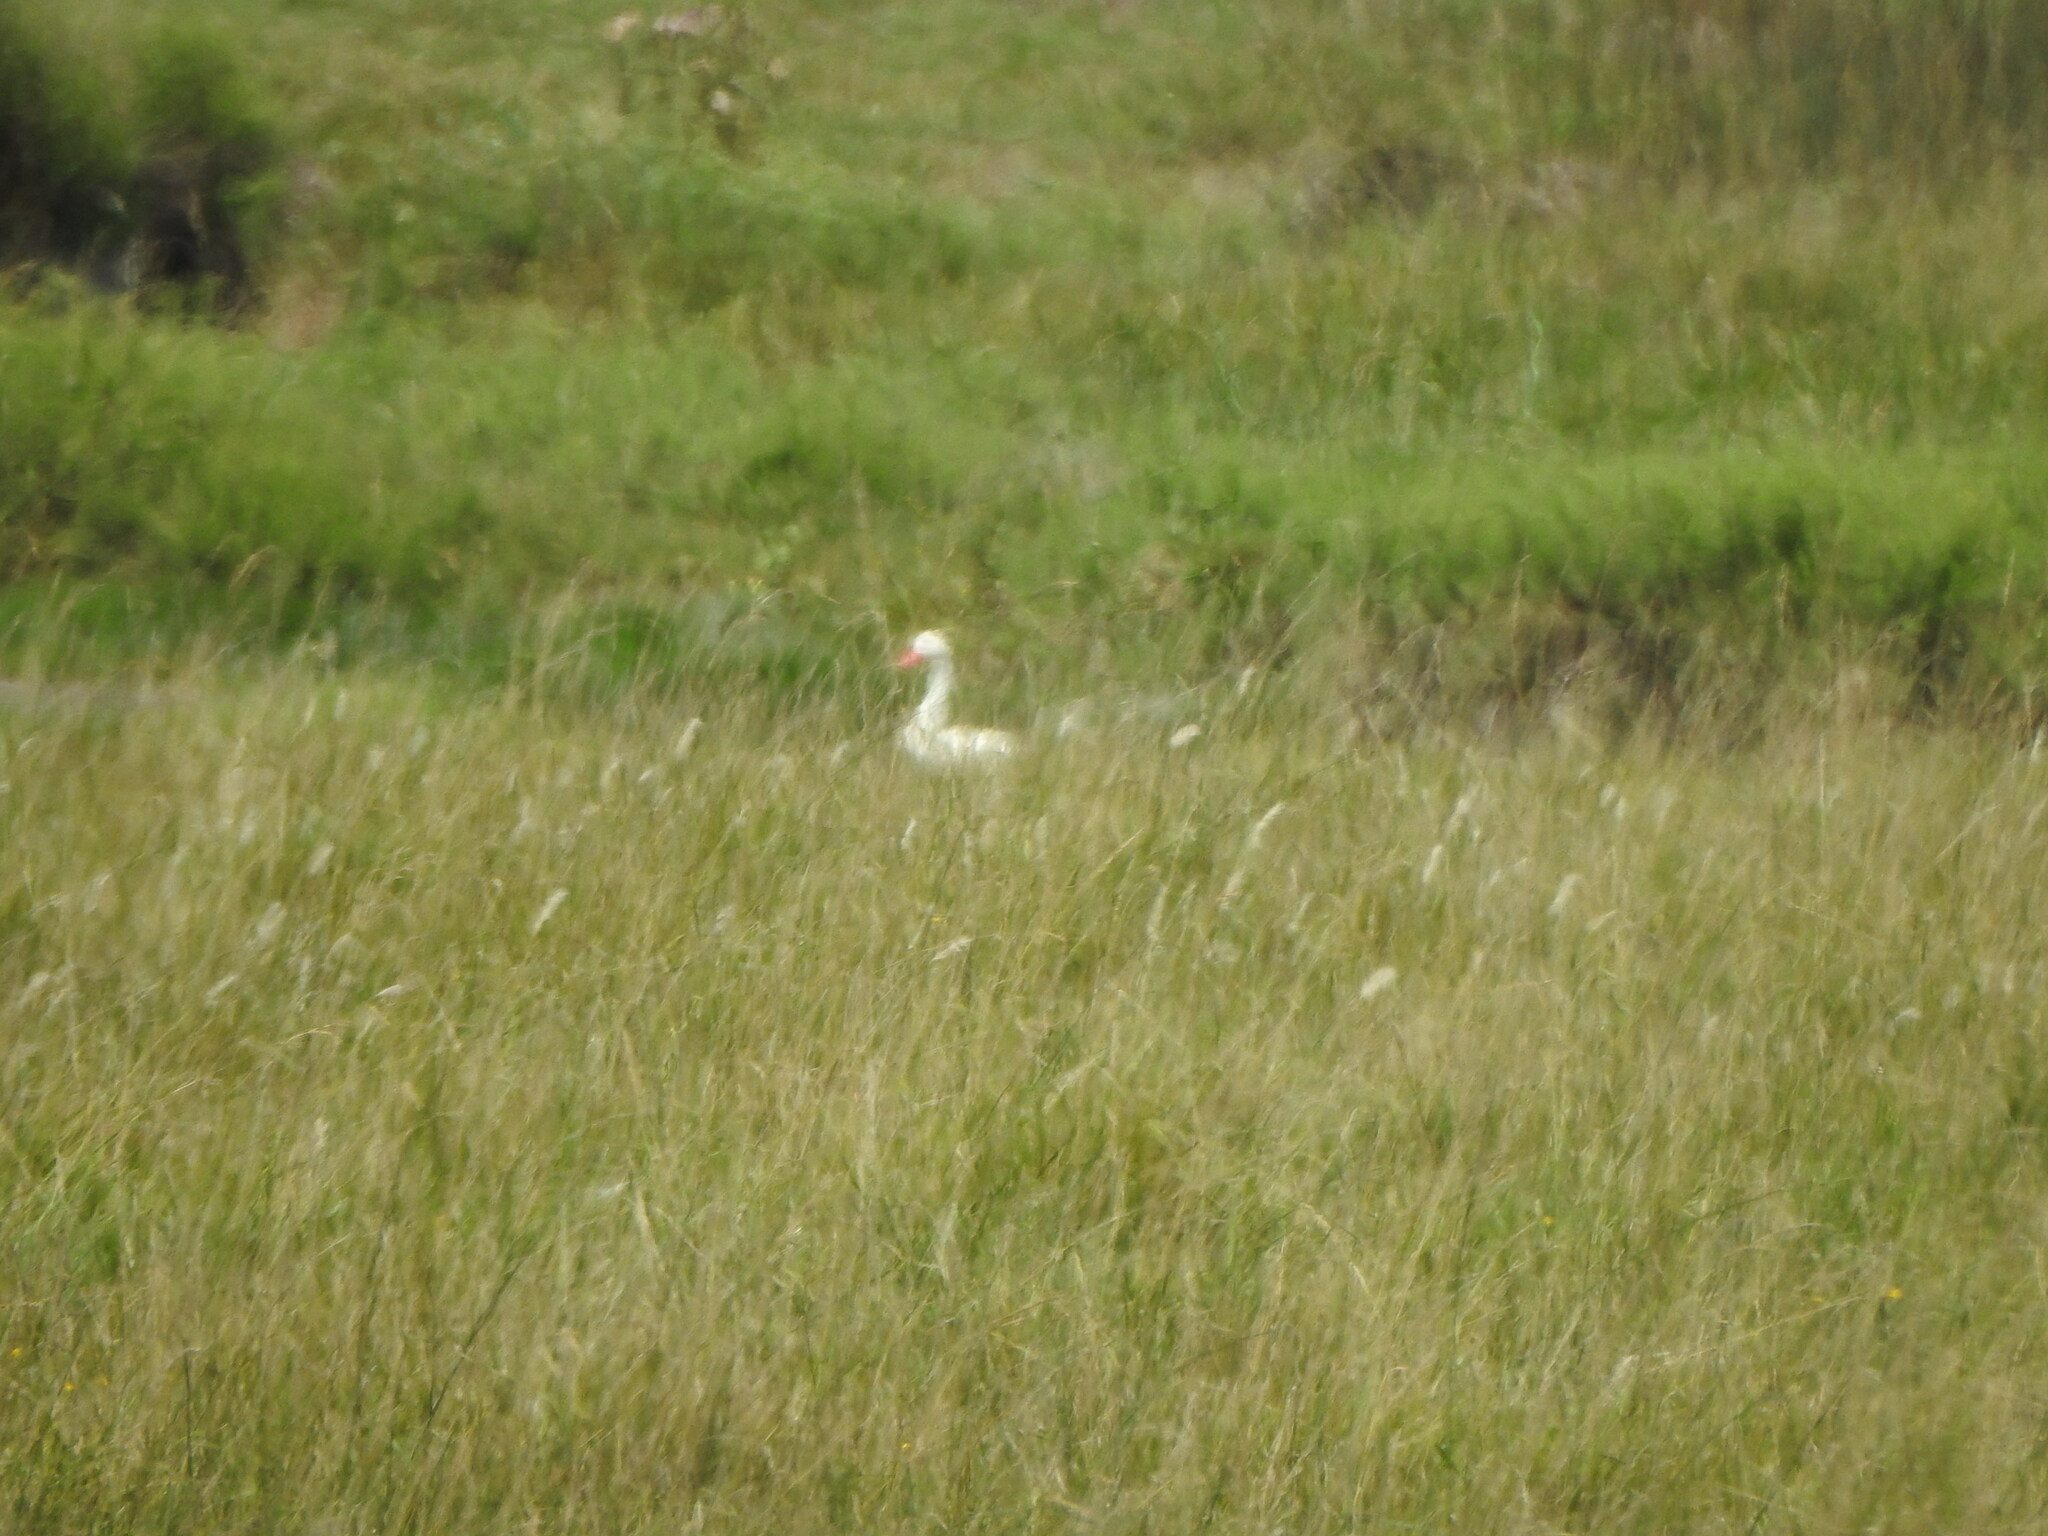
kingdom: Animalia
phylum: Chordata
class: Aves
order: Anseriformes
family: Anatidae
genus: Coscoroba
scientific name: Coscoroba coscoroba
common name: Coscoroba swan
